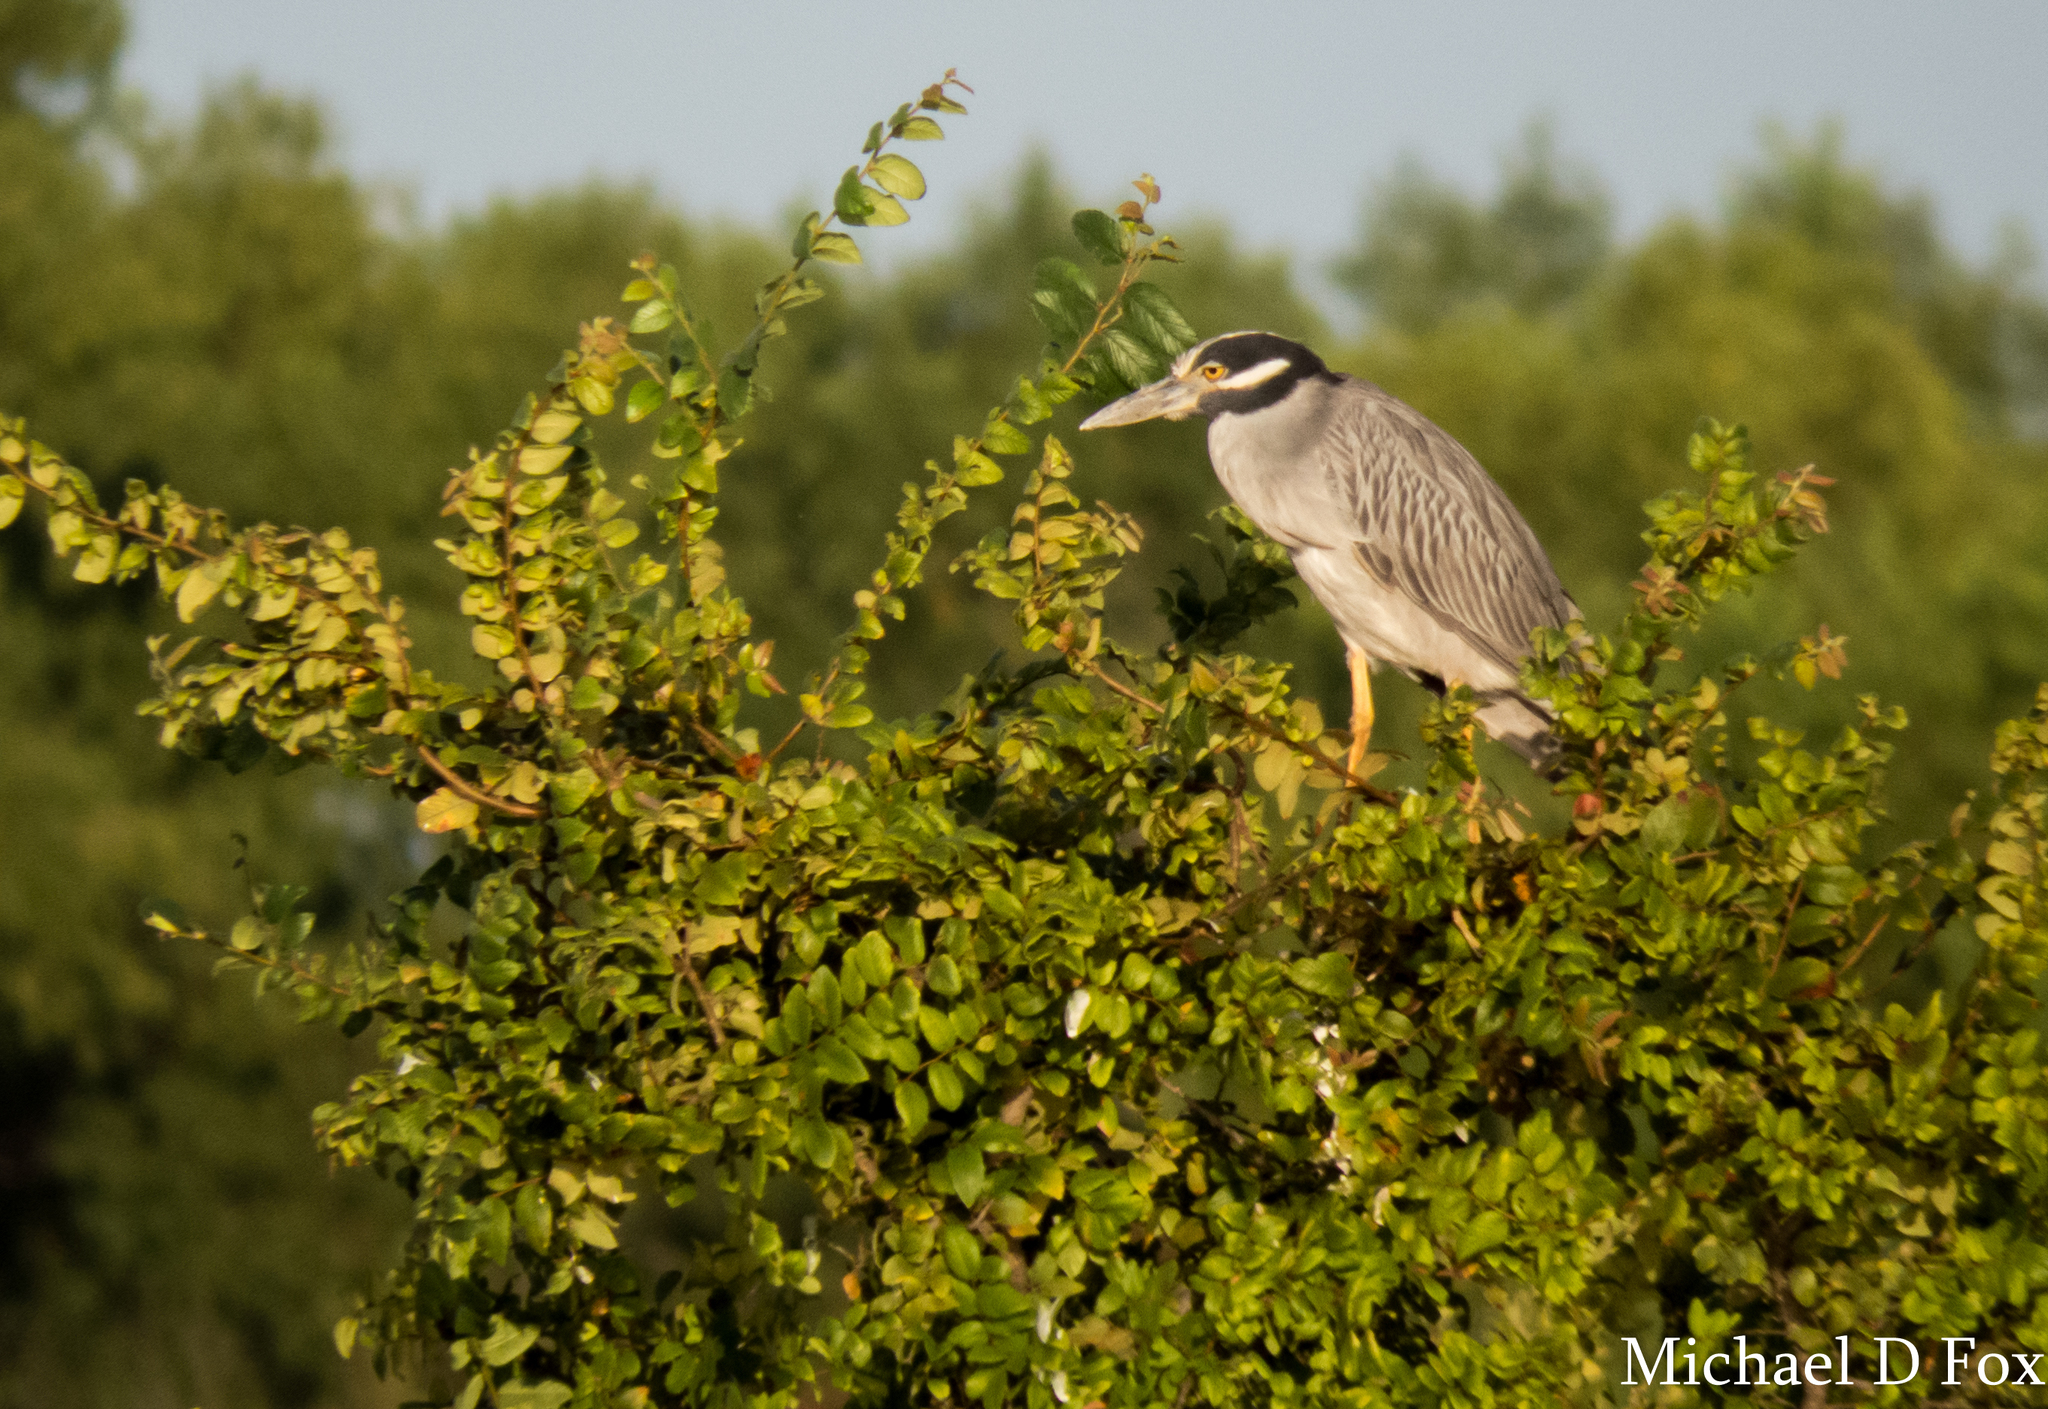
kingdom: Animalia
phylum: Chordata
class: Aves
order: Pelecaniformes
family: Ardeidae
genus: Nyctanassa
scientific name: Nyctanassa violacea
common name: Yellow-crowned night heron
